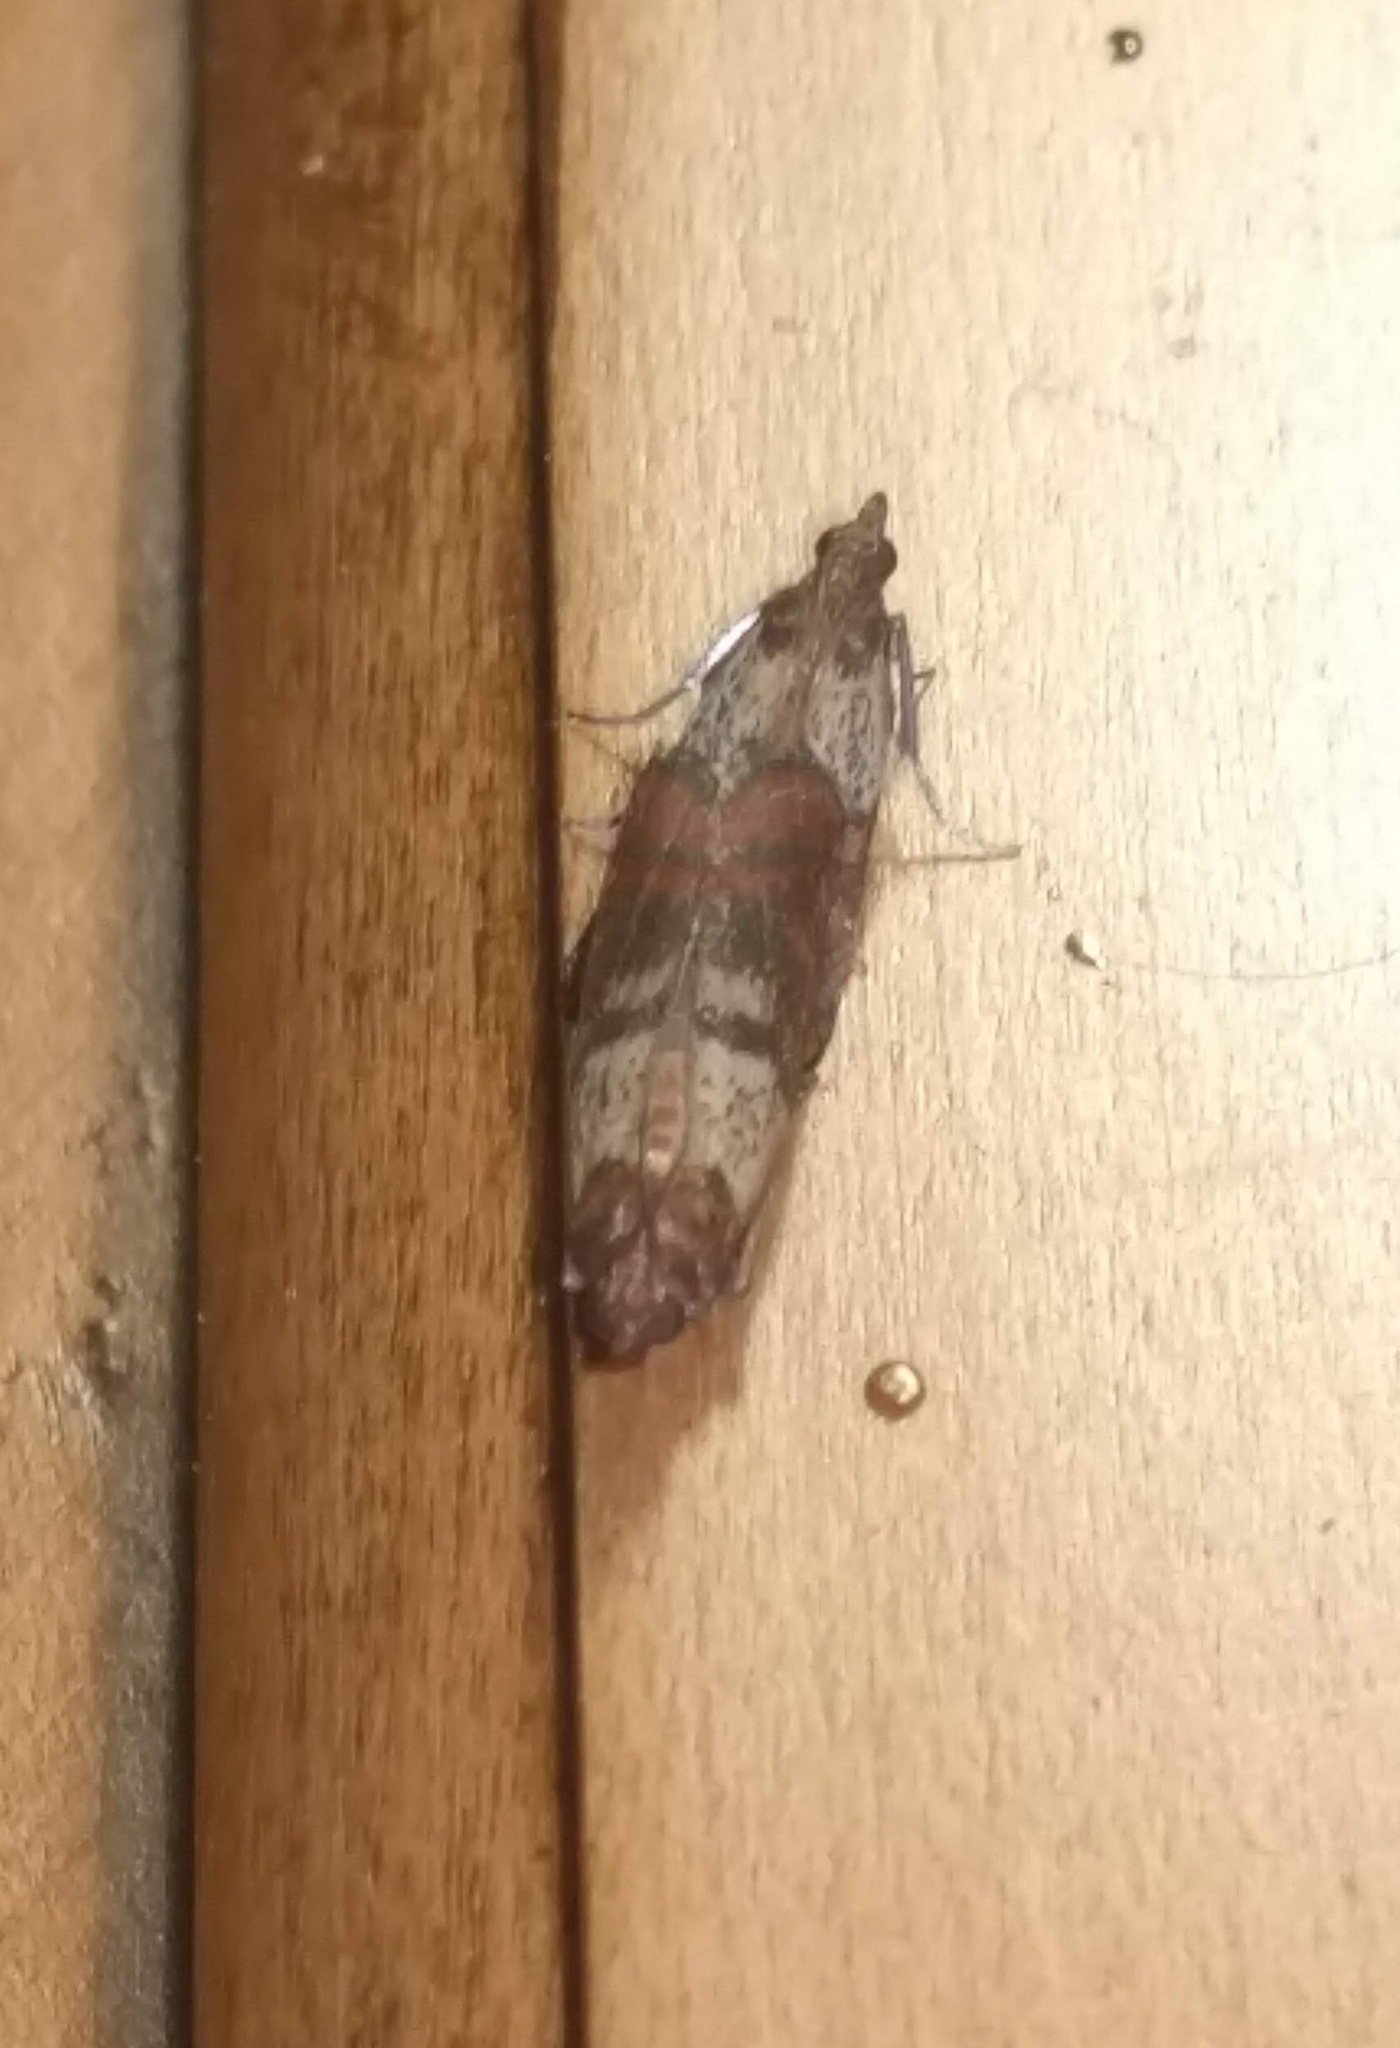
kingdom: Animalia
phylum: Arthropoda
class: Insecta
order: Lepidoptera
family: Pyralidae
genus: Plodia
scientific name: Plodia interpunctella
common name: Indian meal moth
